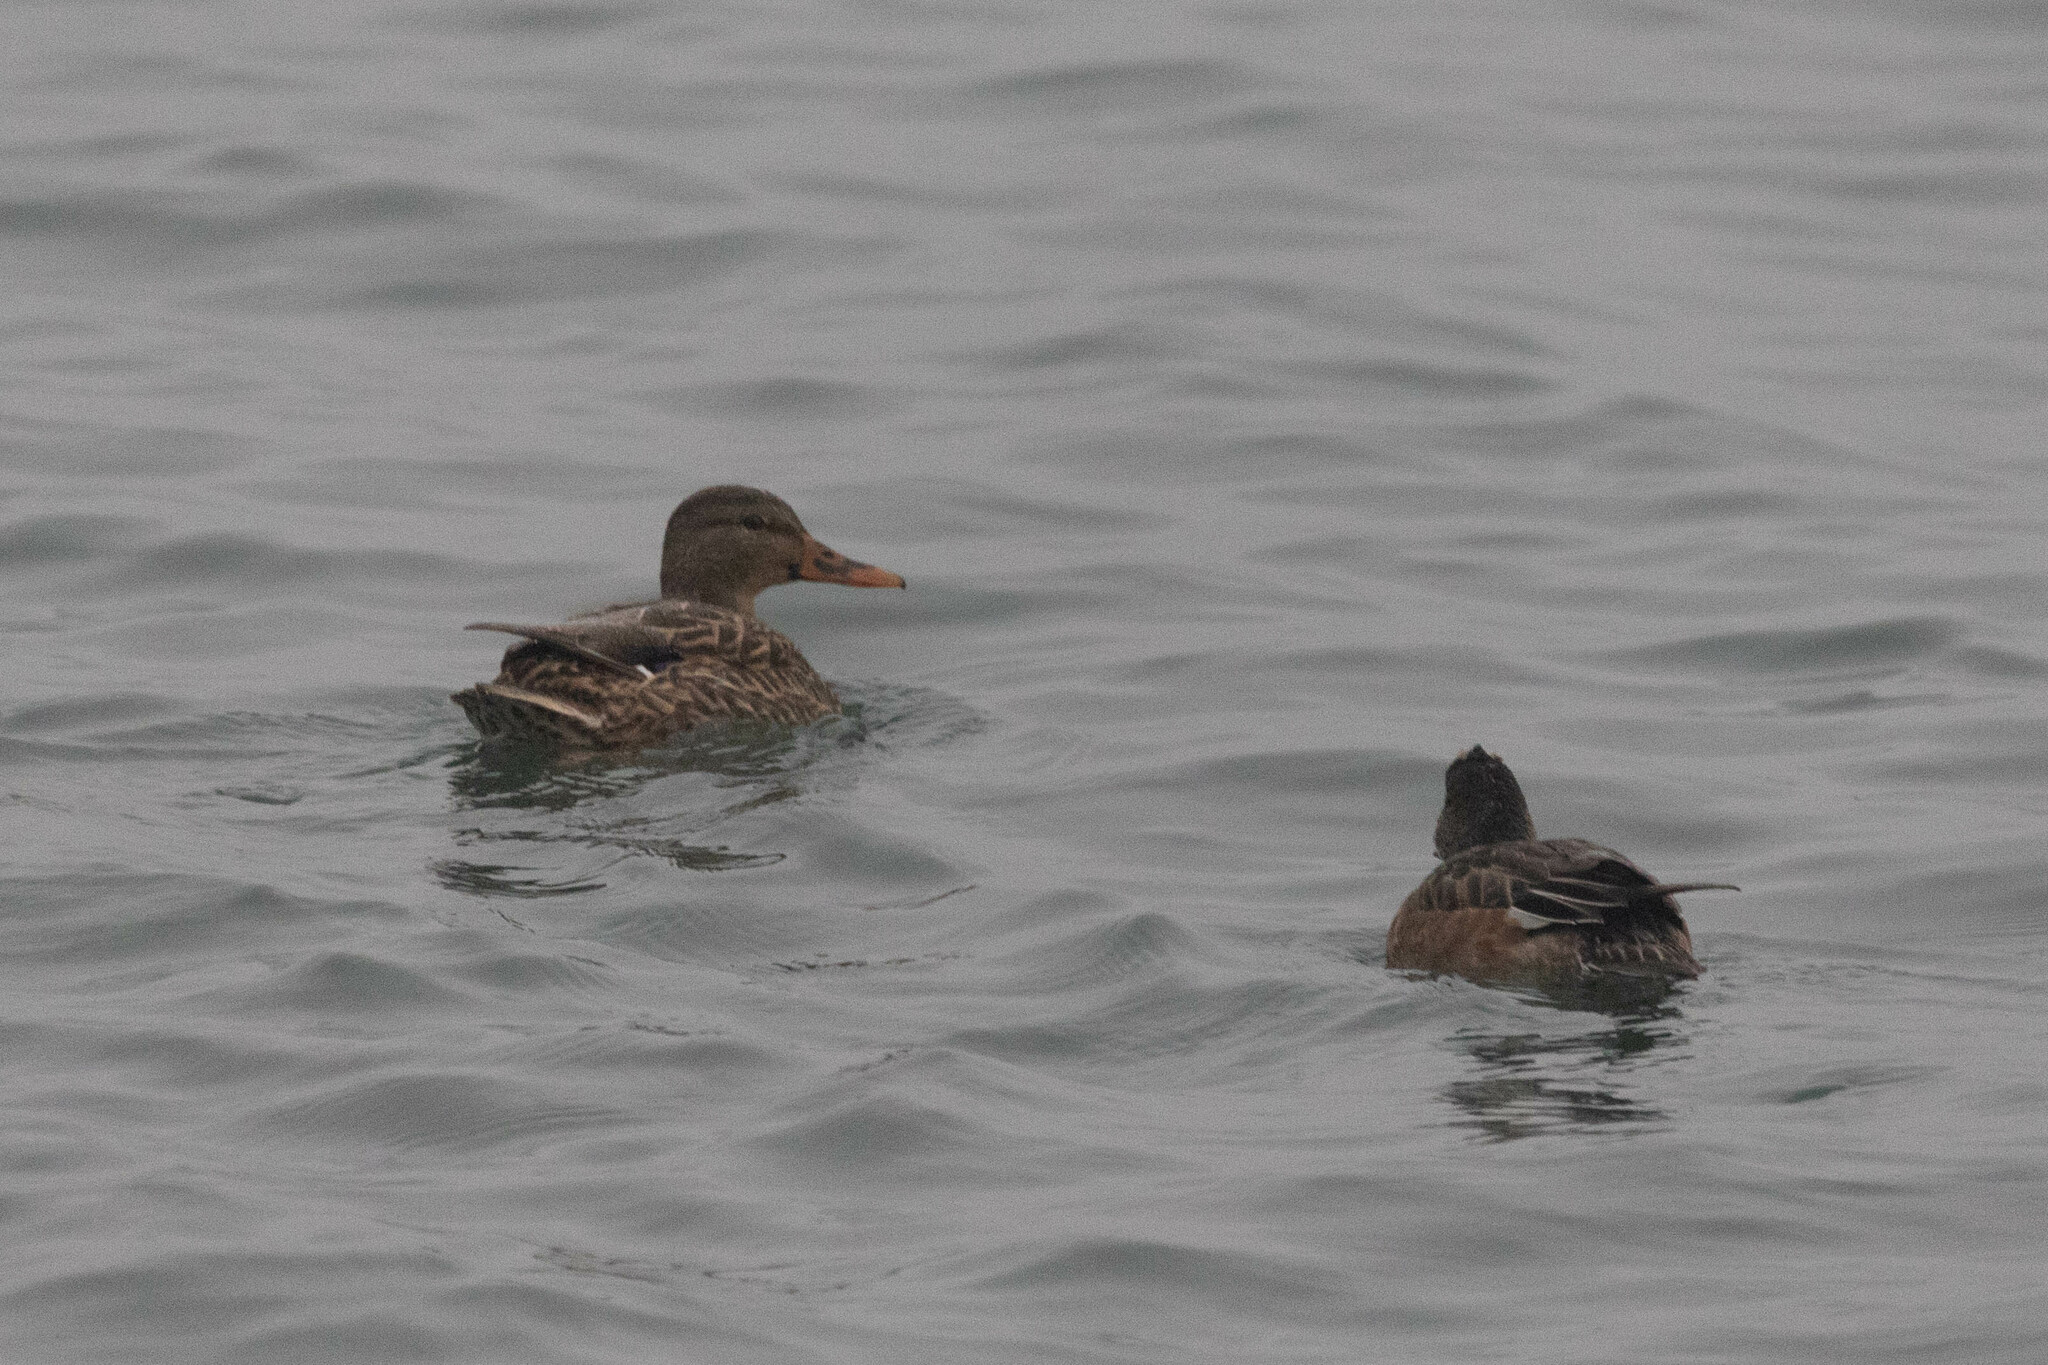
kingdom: Animalia
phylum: Chordata
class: Aves
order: Anseriformes
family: Anatidae
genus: Anas
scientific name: Anas platyrhynchos
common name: Mallard
